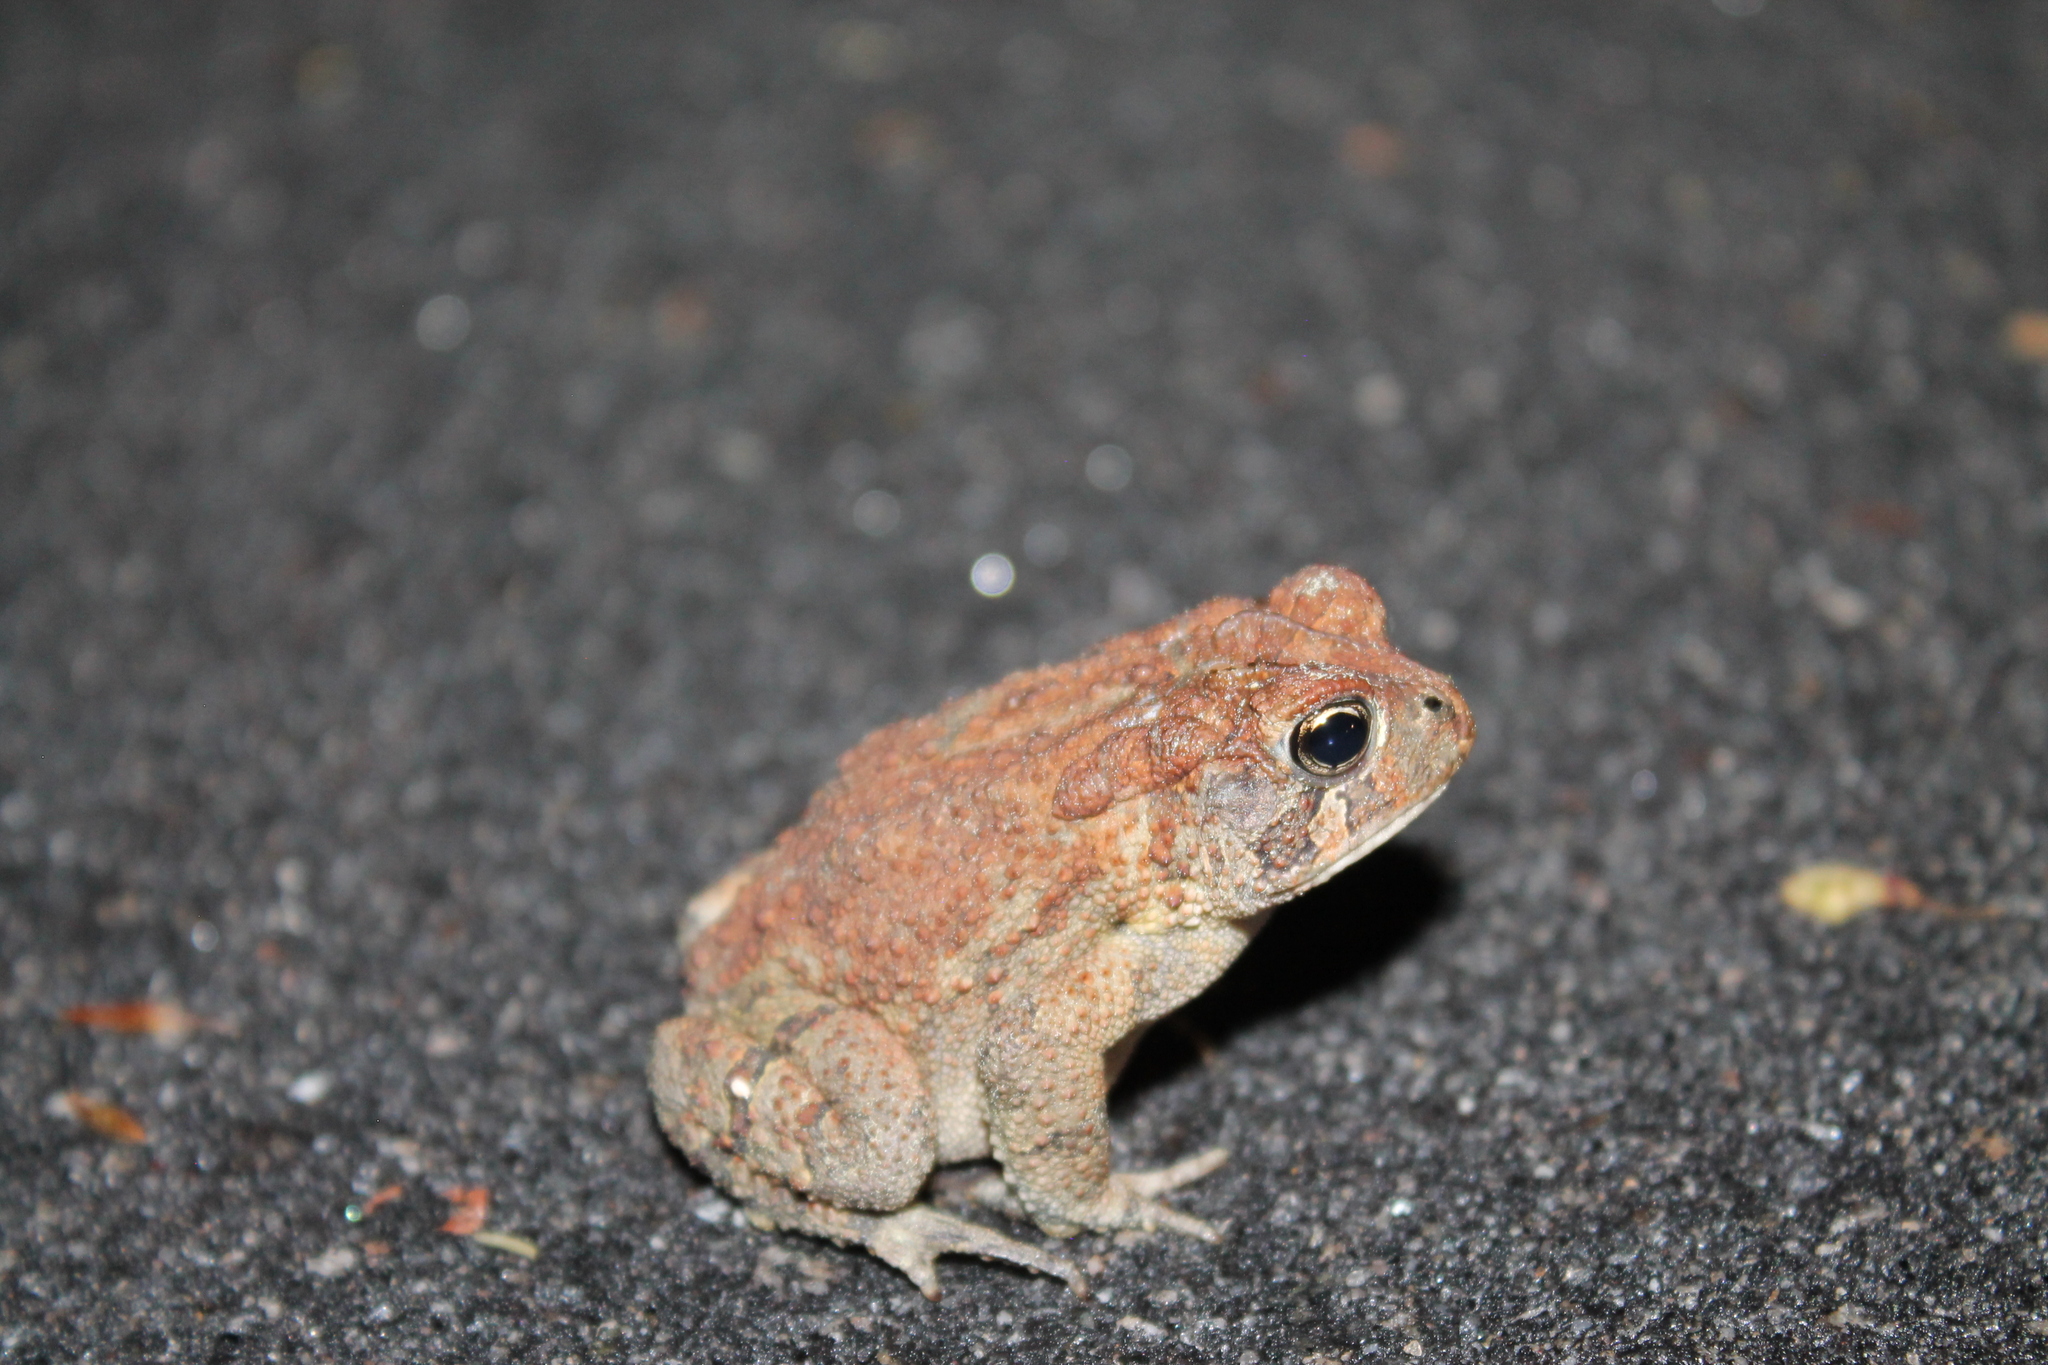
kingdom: Animalia
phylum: Chordata
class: Amphibia
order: Anura
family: Bufonidae
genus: Anaxyrus
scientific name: Anaxyrus terrestris
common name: Southern toad
